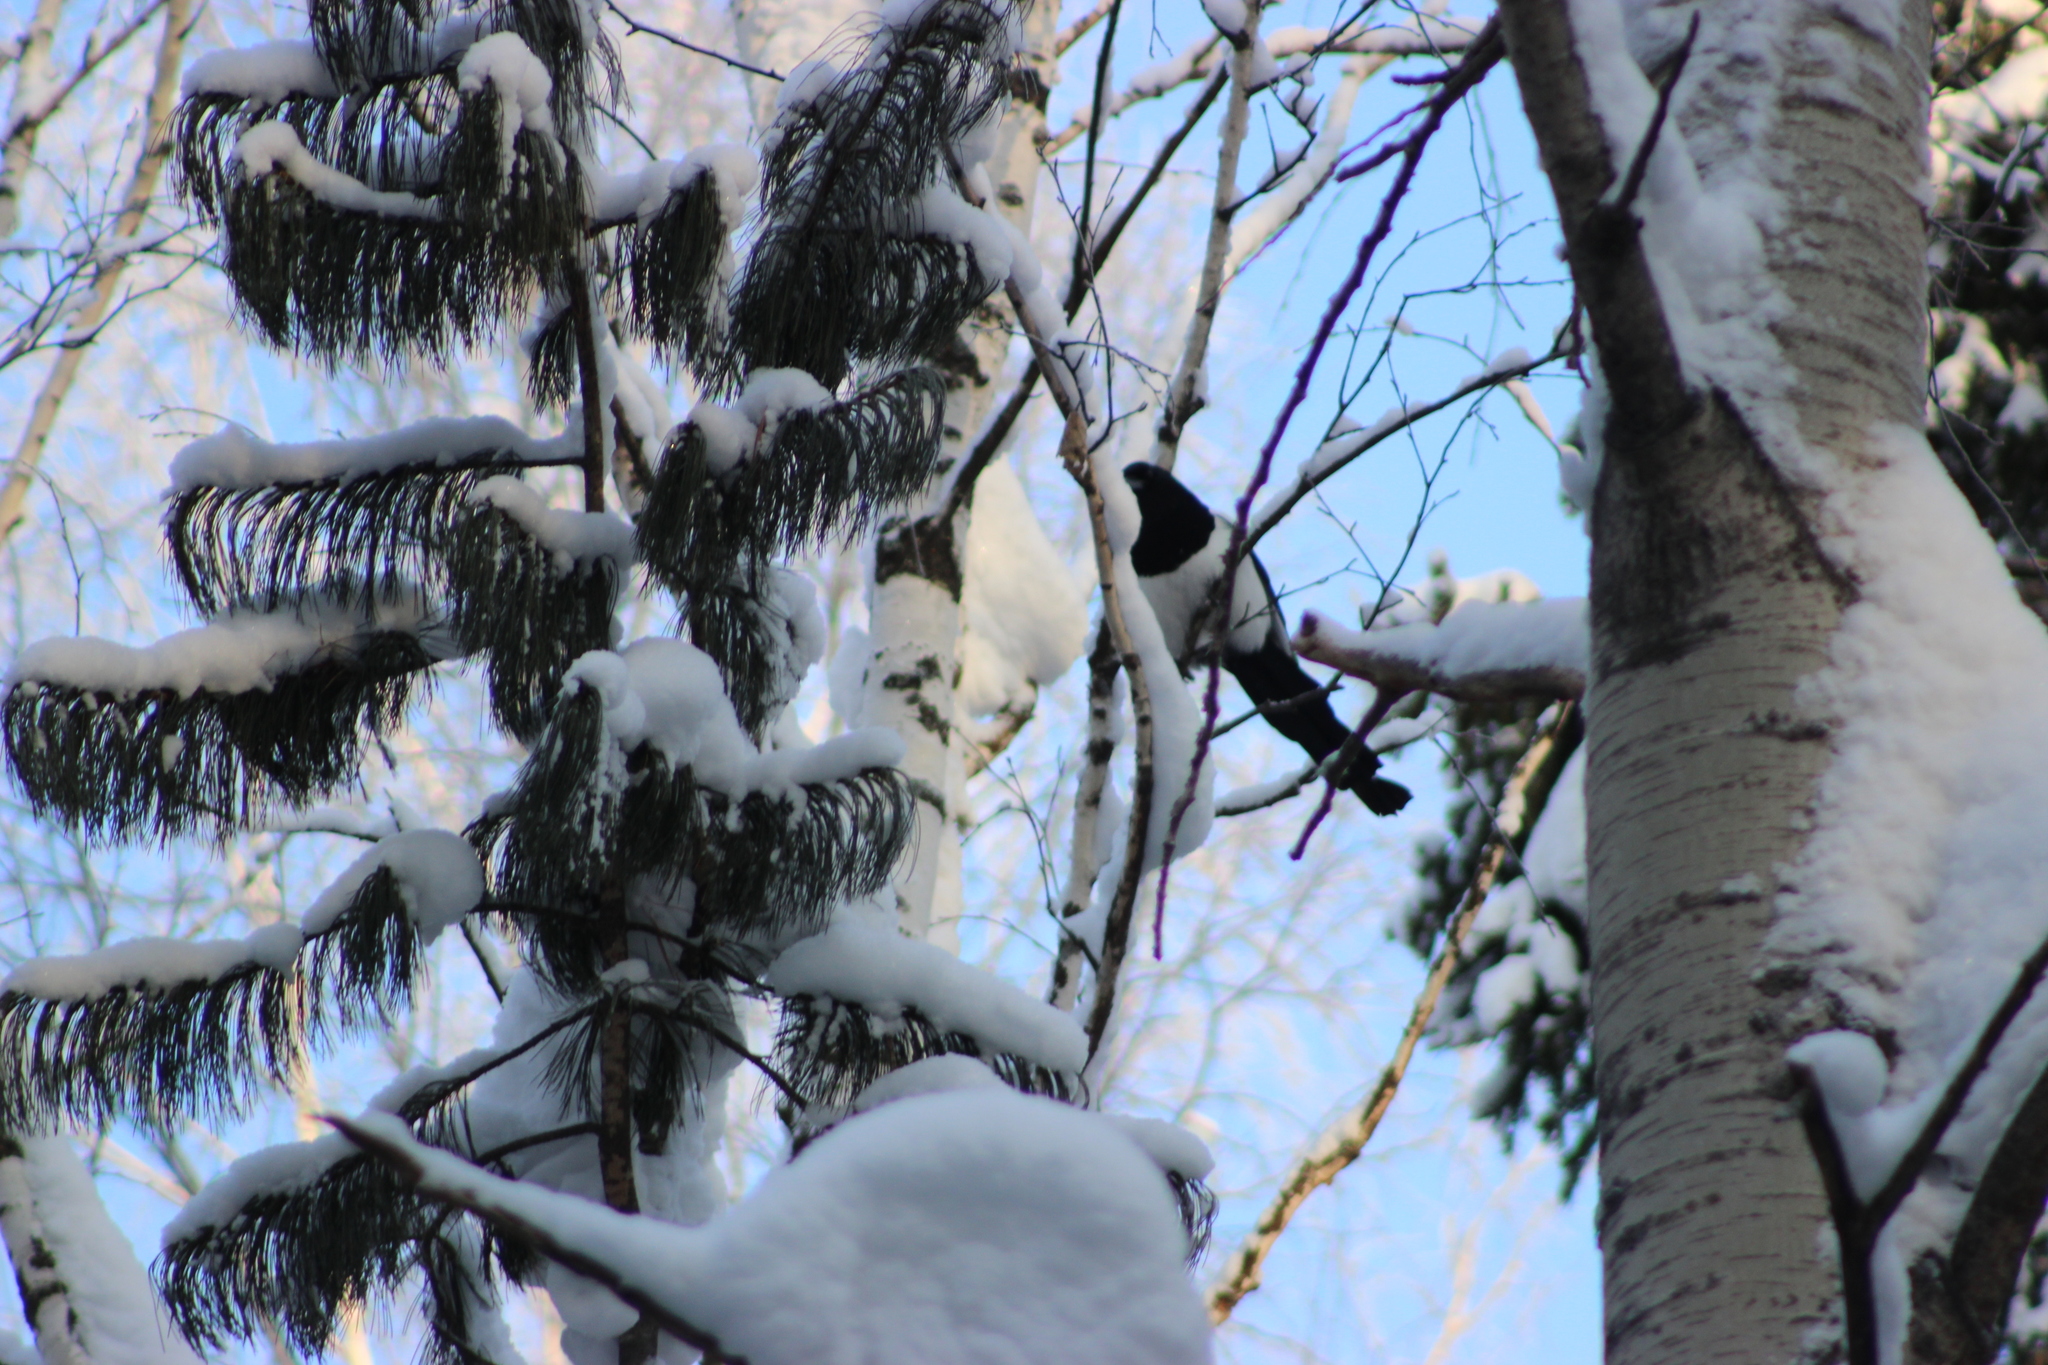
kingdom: Animalia
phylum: Chordata
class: Aves
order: Passeriformes
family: Corvidae
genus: Pica
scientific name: Pica pica
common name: Eurasian magpie
